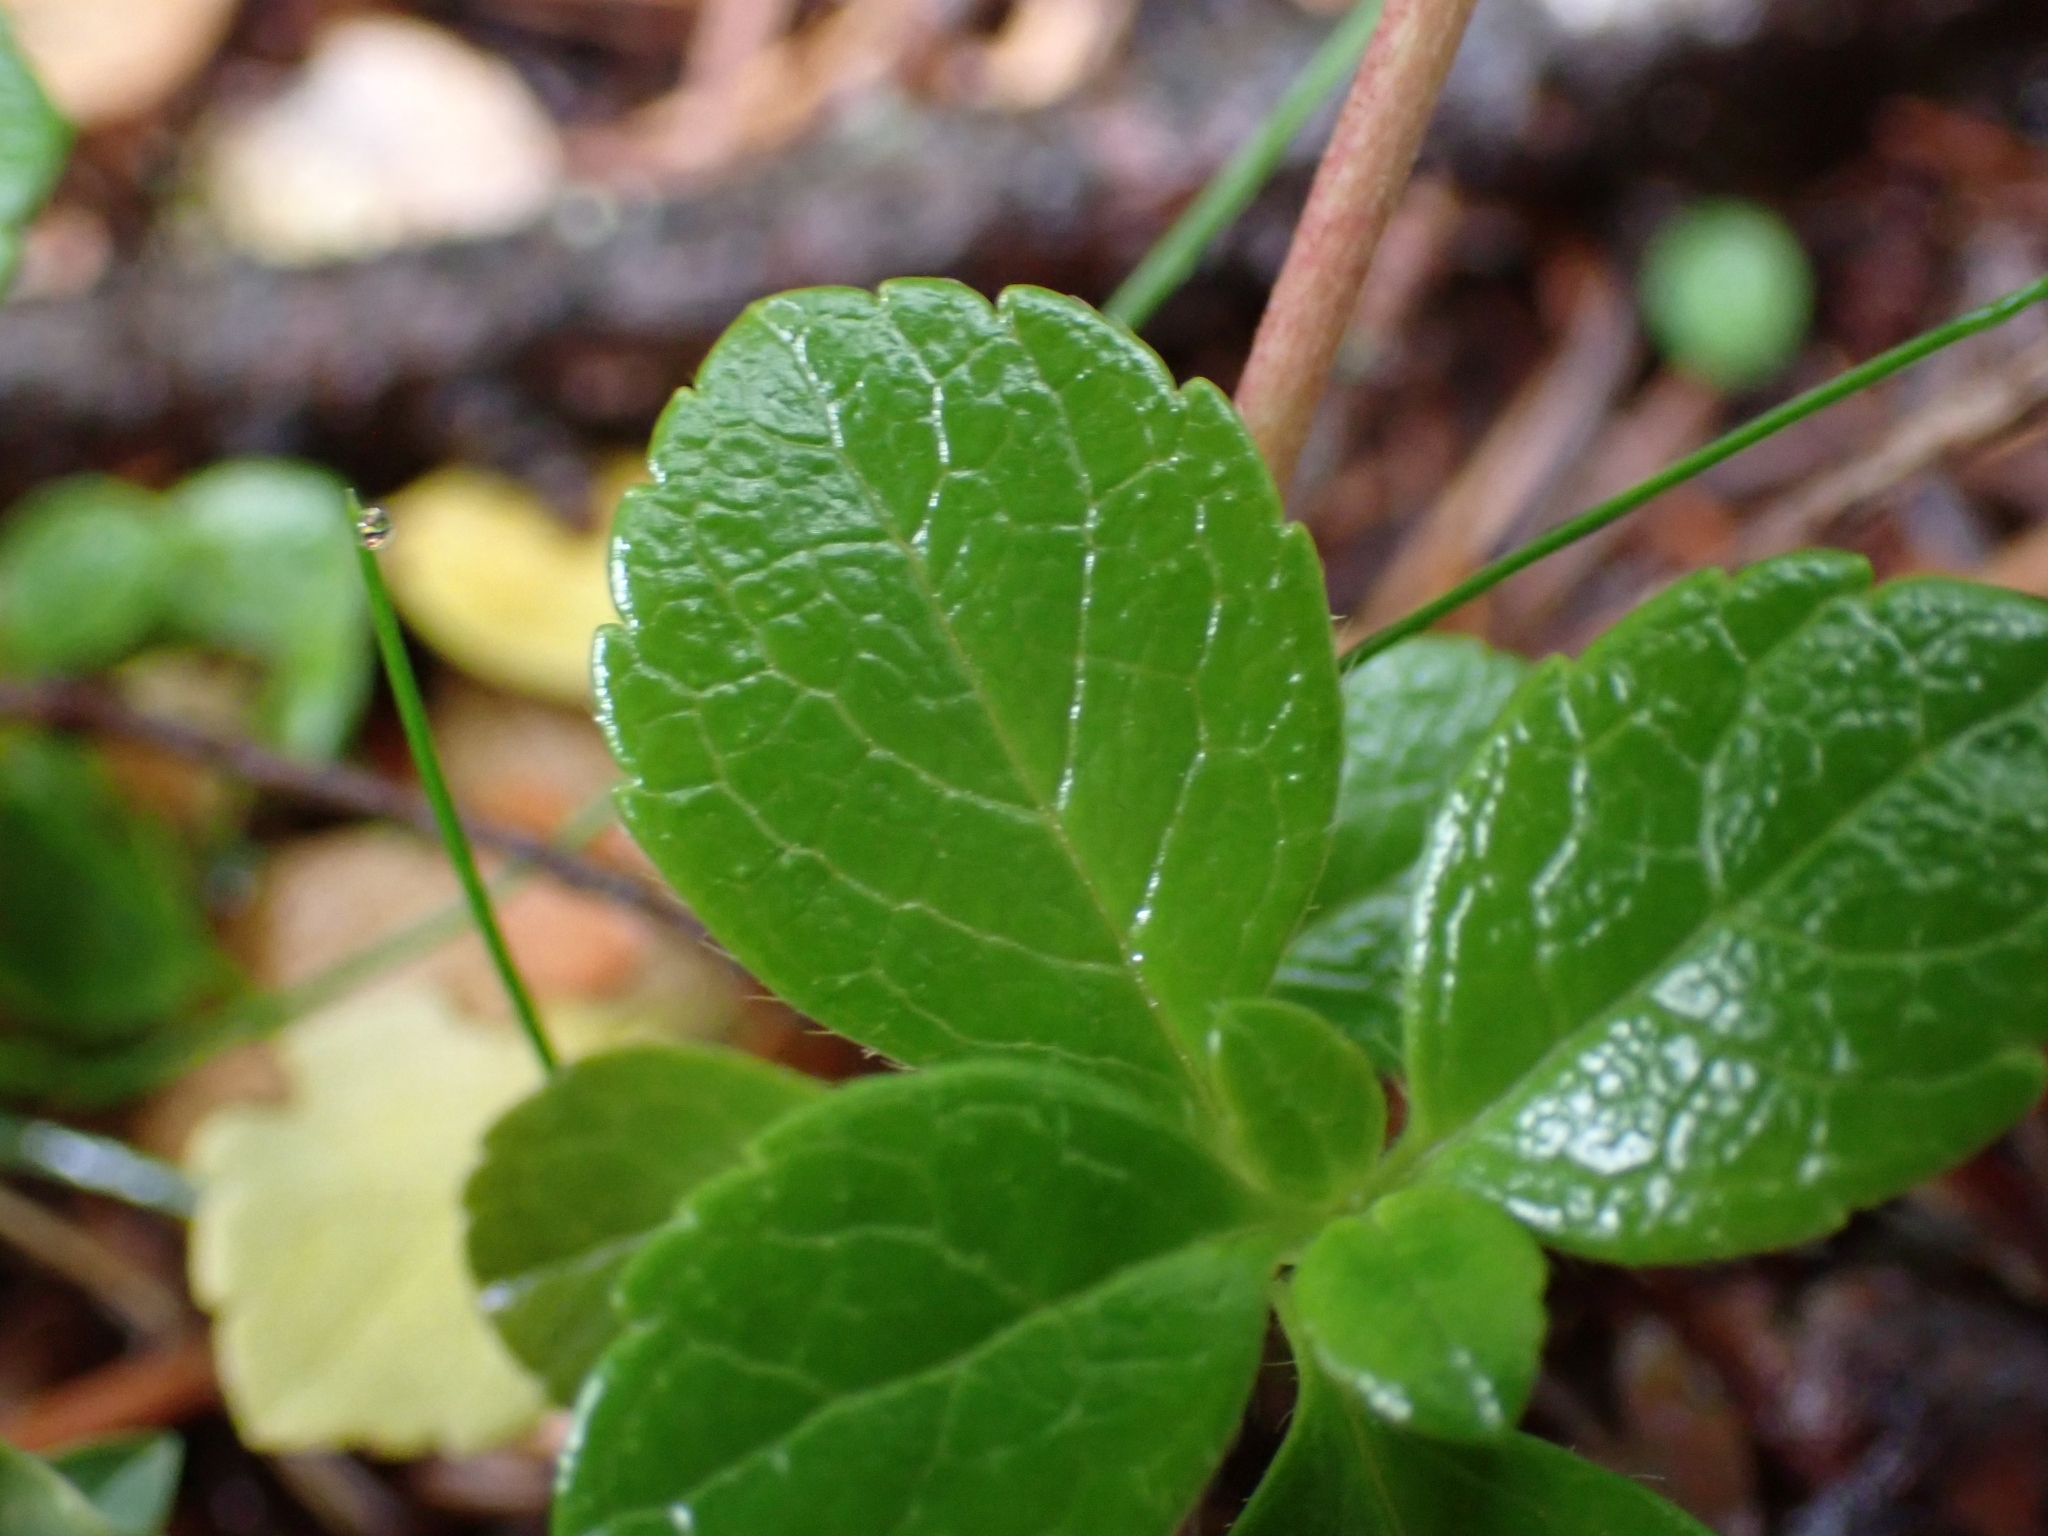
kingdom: Plantae
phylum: Tracheophyta
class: Magnoliopsida
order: Dipsacales
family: Caprifoliaceae
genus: Linnaea
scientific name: Linnaea borealis
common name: Twinflower
